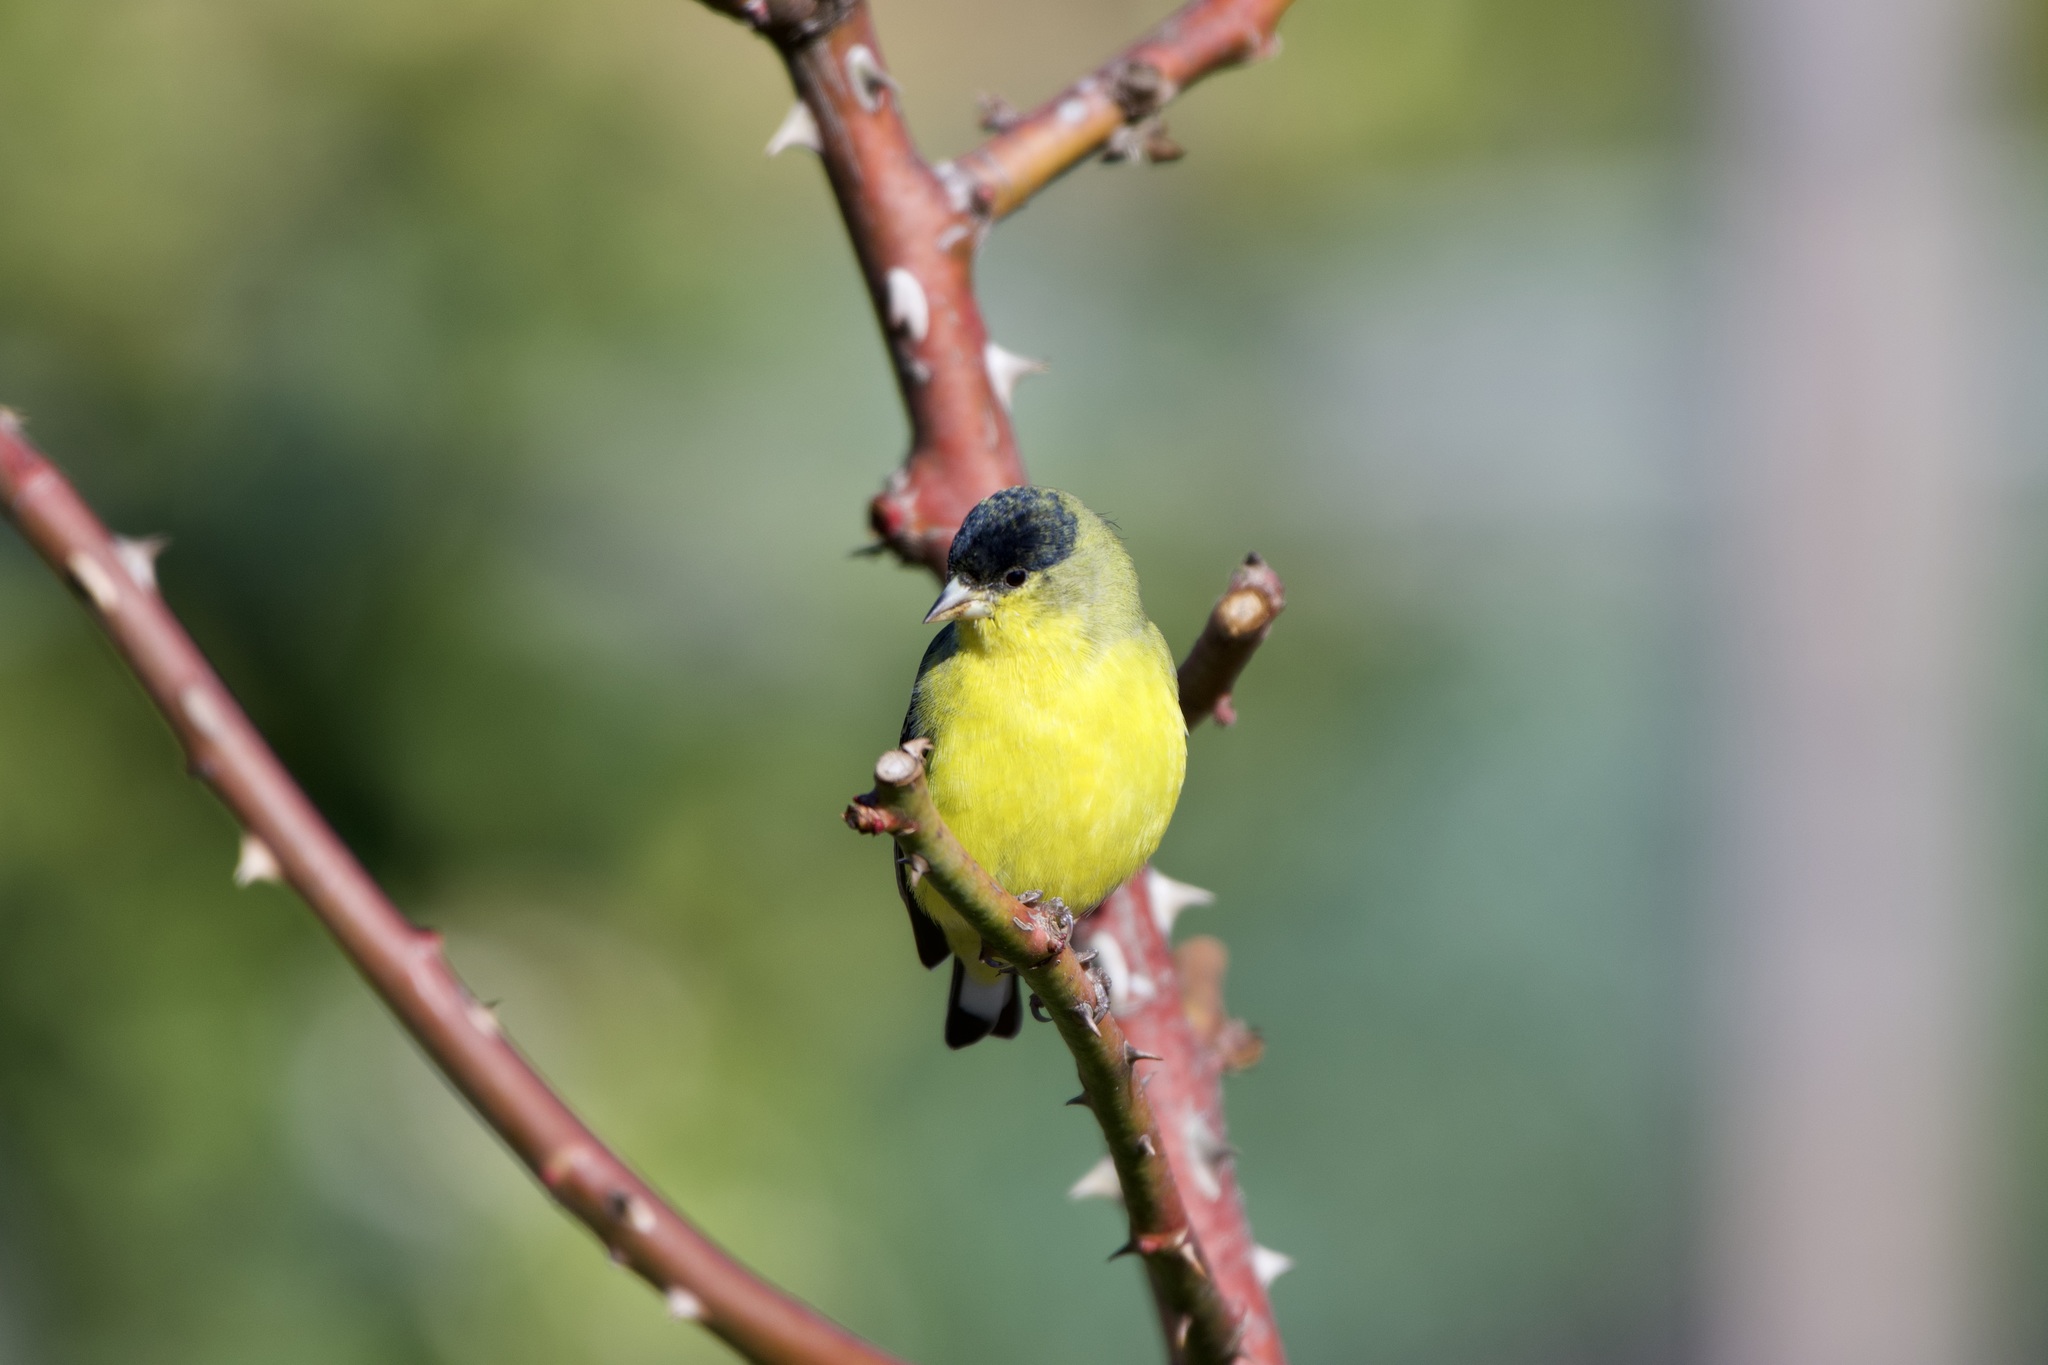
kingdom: Animalia
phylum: Chordata
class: Aves
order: Passeriformes
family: Fringillidae
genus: Spinus
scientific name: Spinus psaltria
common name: Lesser goldfinch
